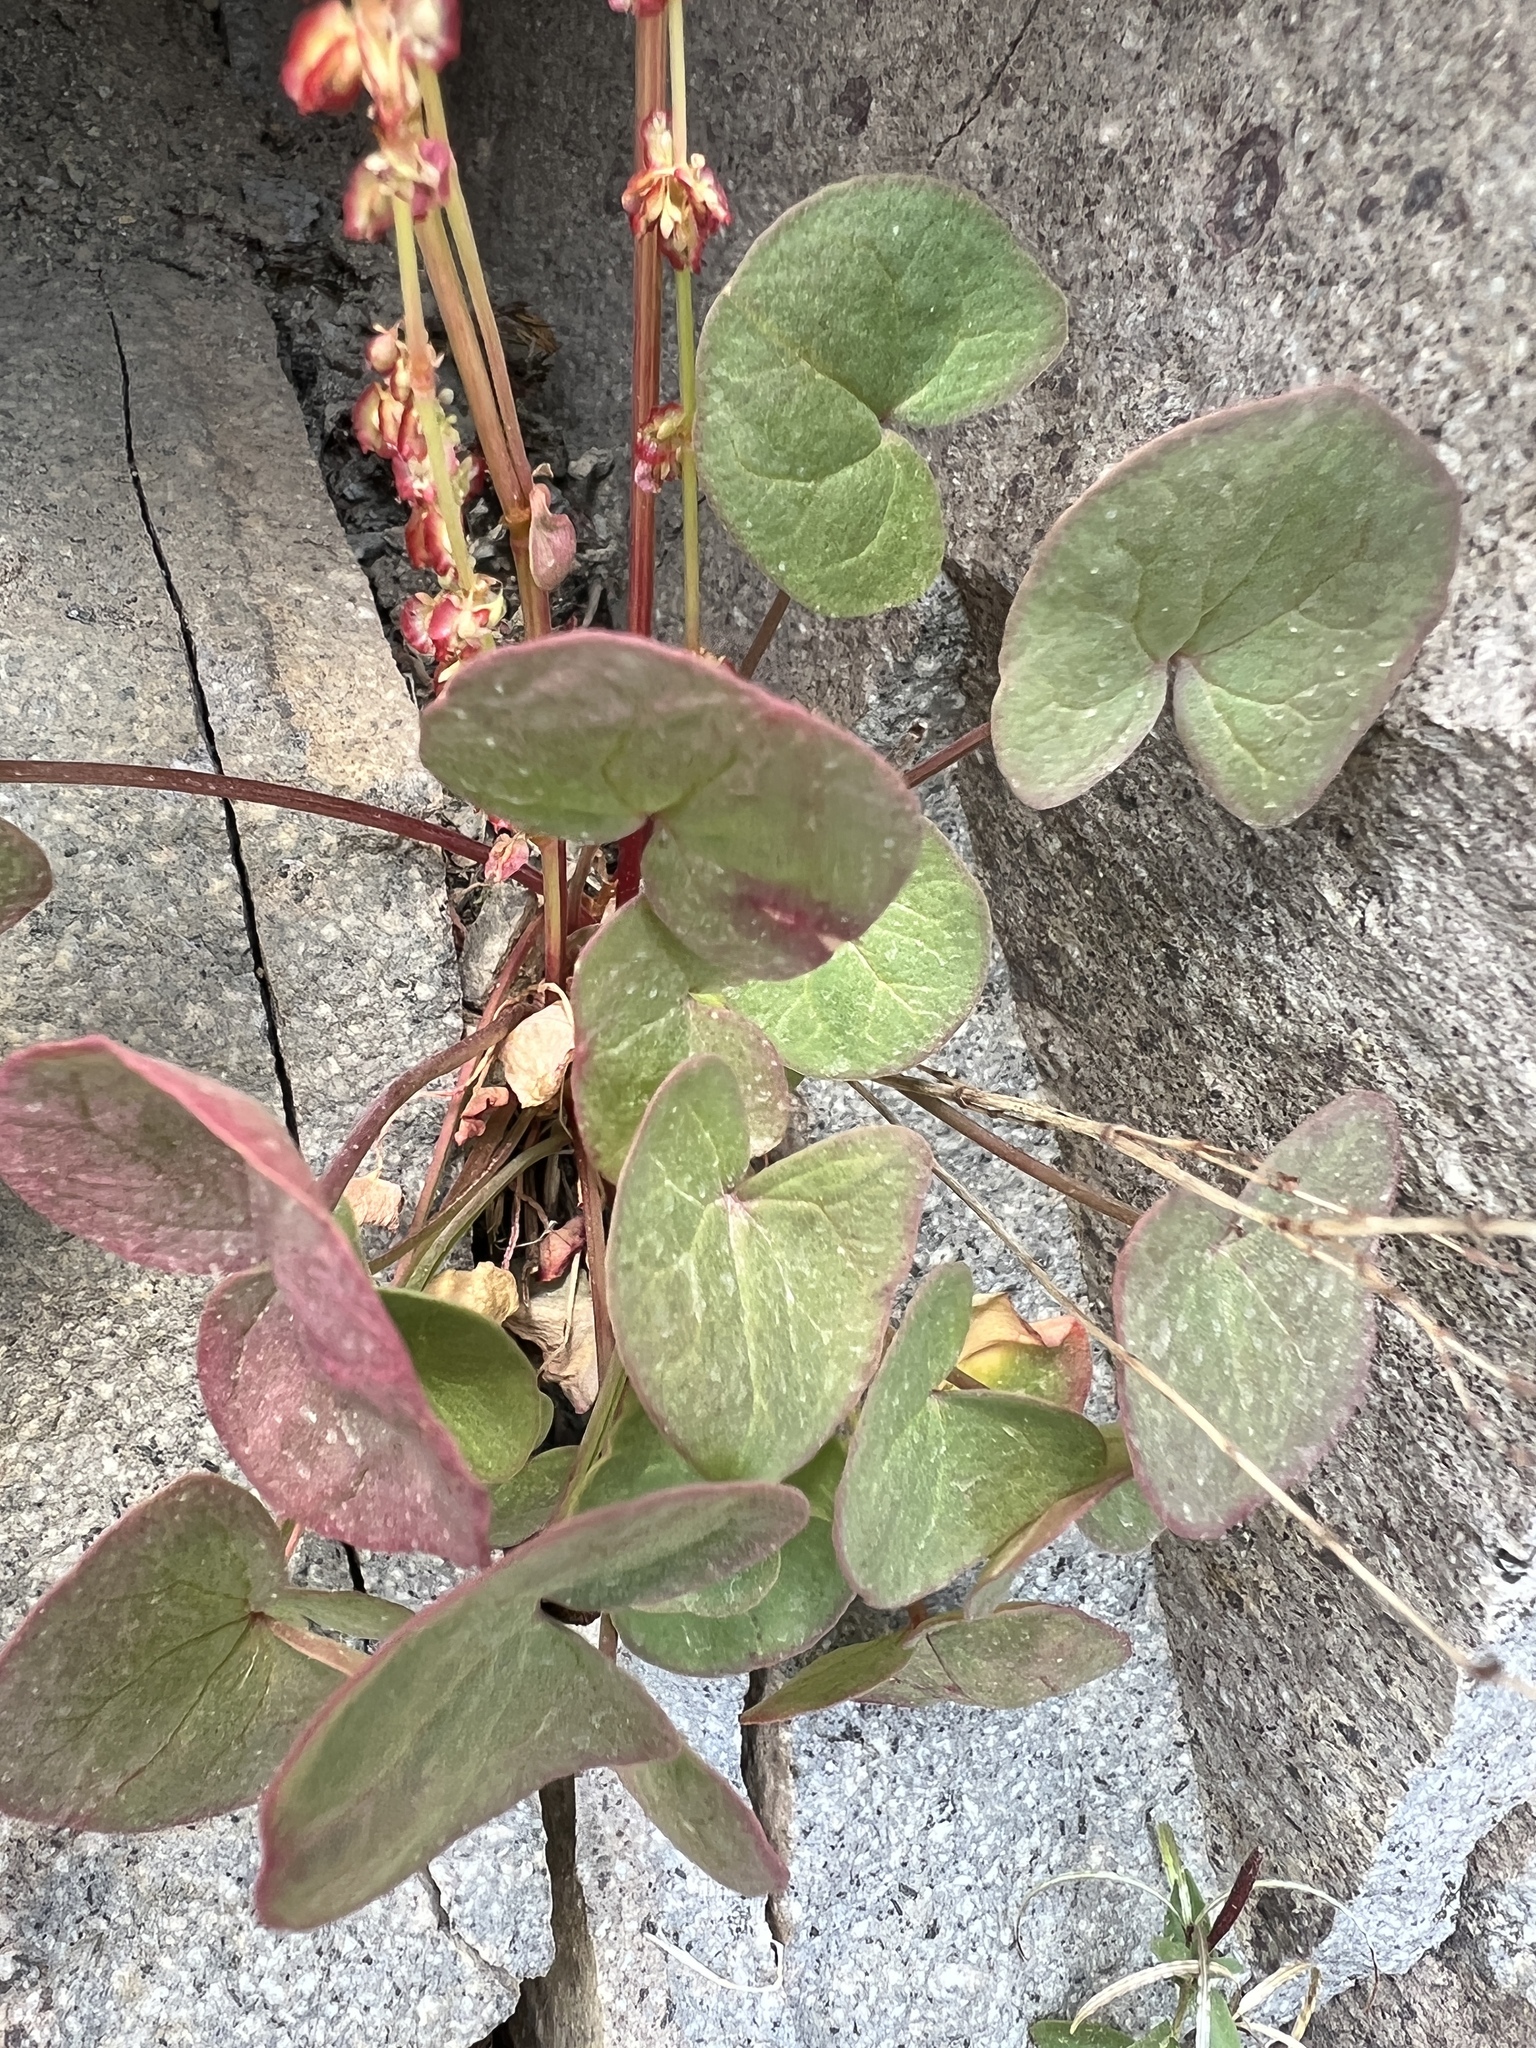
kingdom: Plantae
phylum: Tracheophyta
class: Magnoliopsida
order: Caryophyllales
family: Polygonaceae
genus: Oxyria
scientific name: Oxyria digyna
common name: Alpine mountain-sorrel
